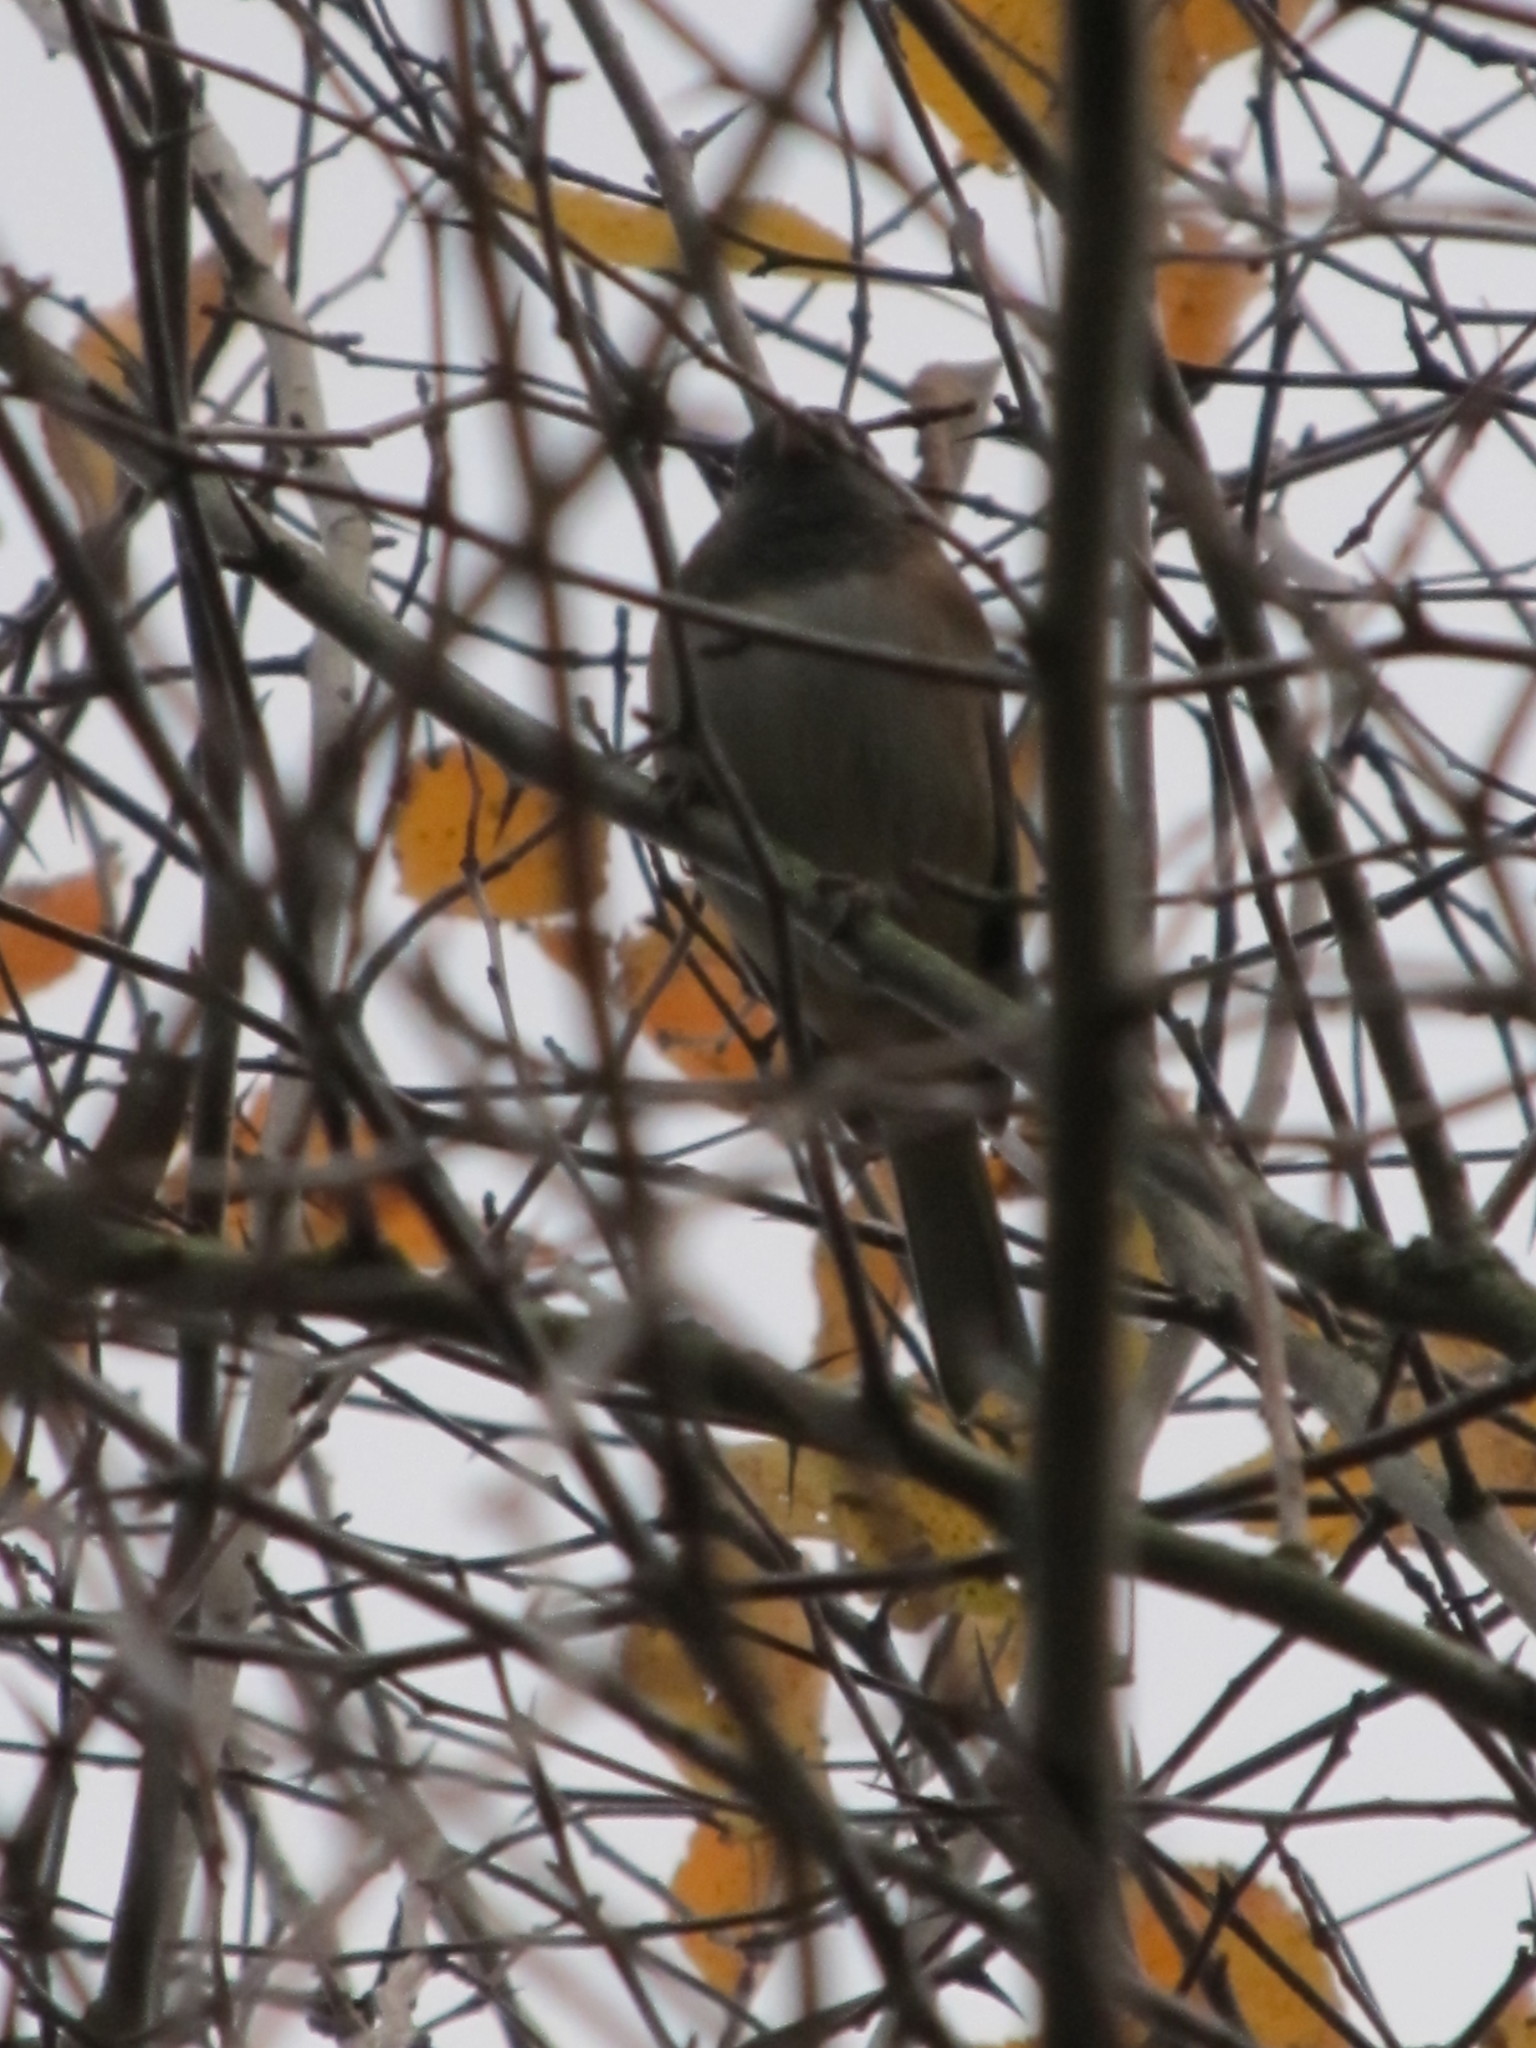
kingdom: Animalia
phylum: Chordata
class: Aves
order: Passeriformes
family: Passerellidae
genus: Junco
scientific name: Junco hyemalis
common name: Dark-eyed junco
